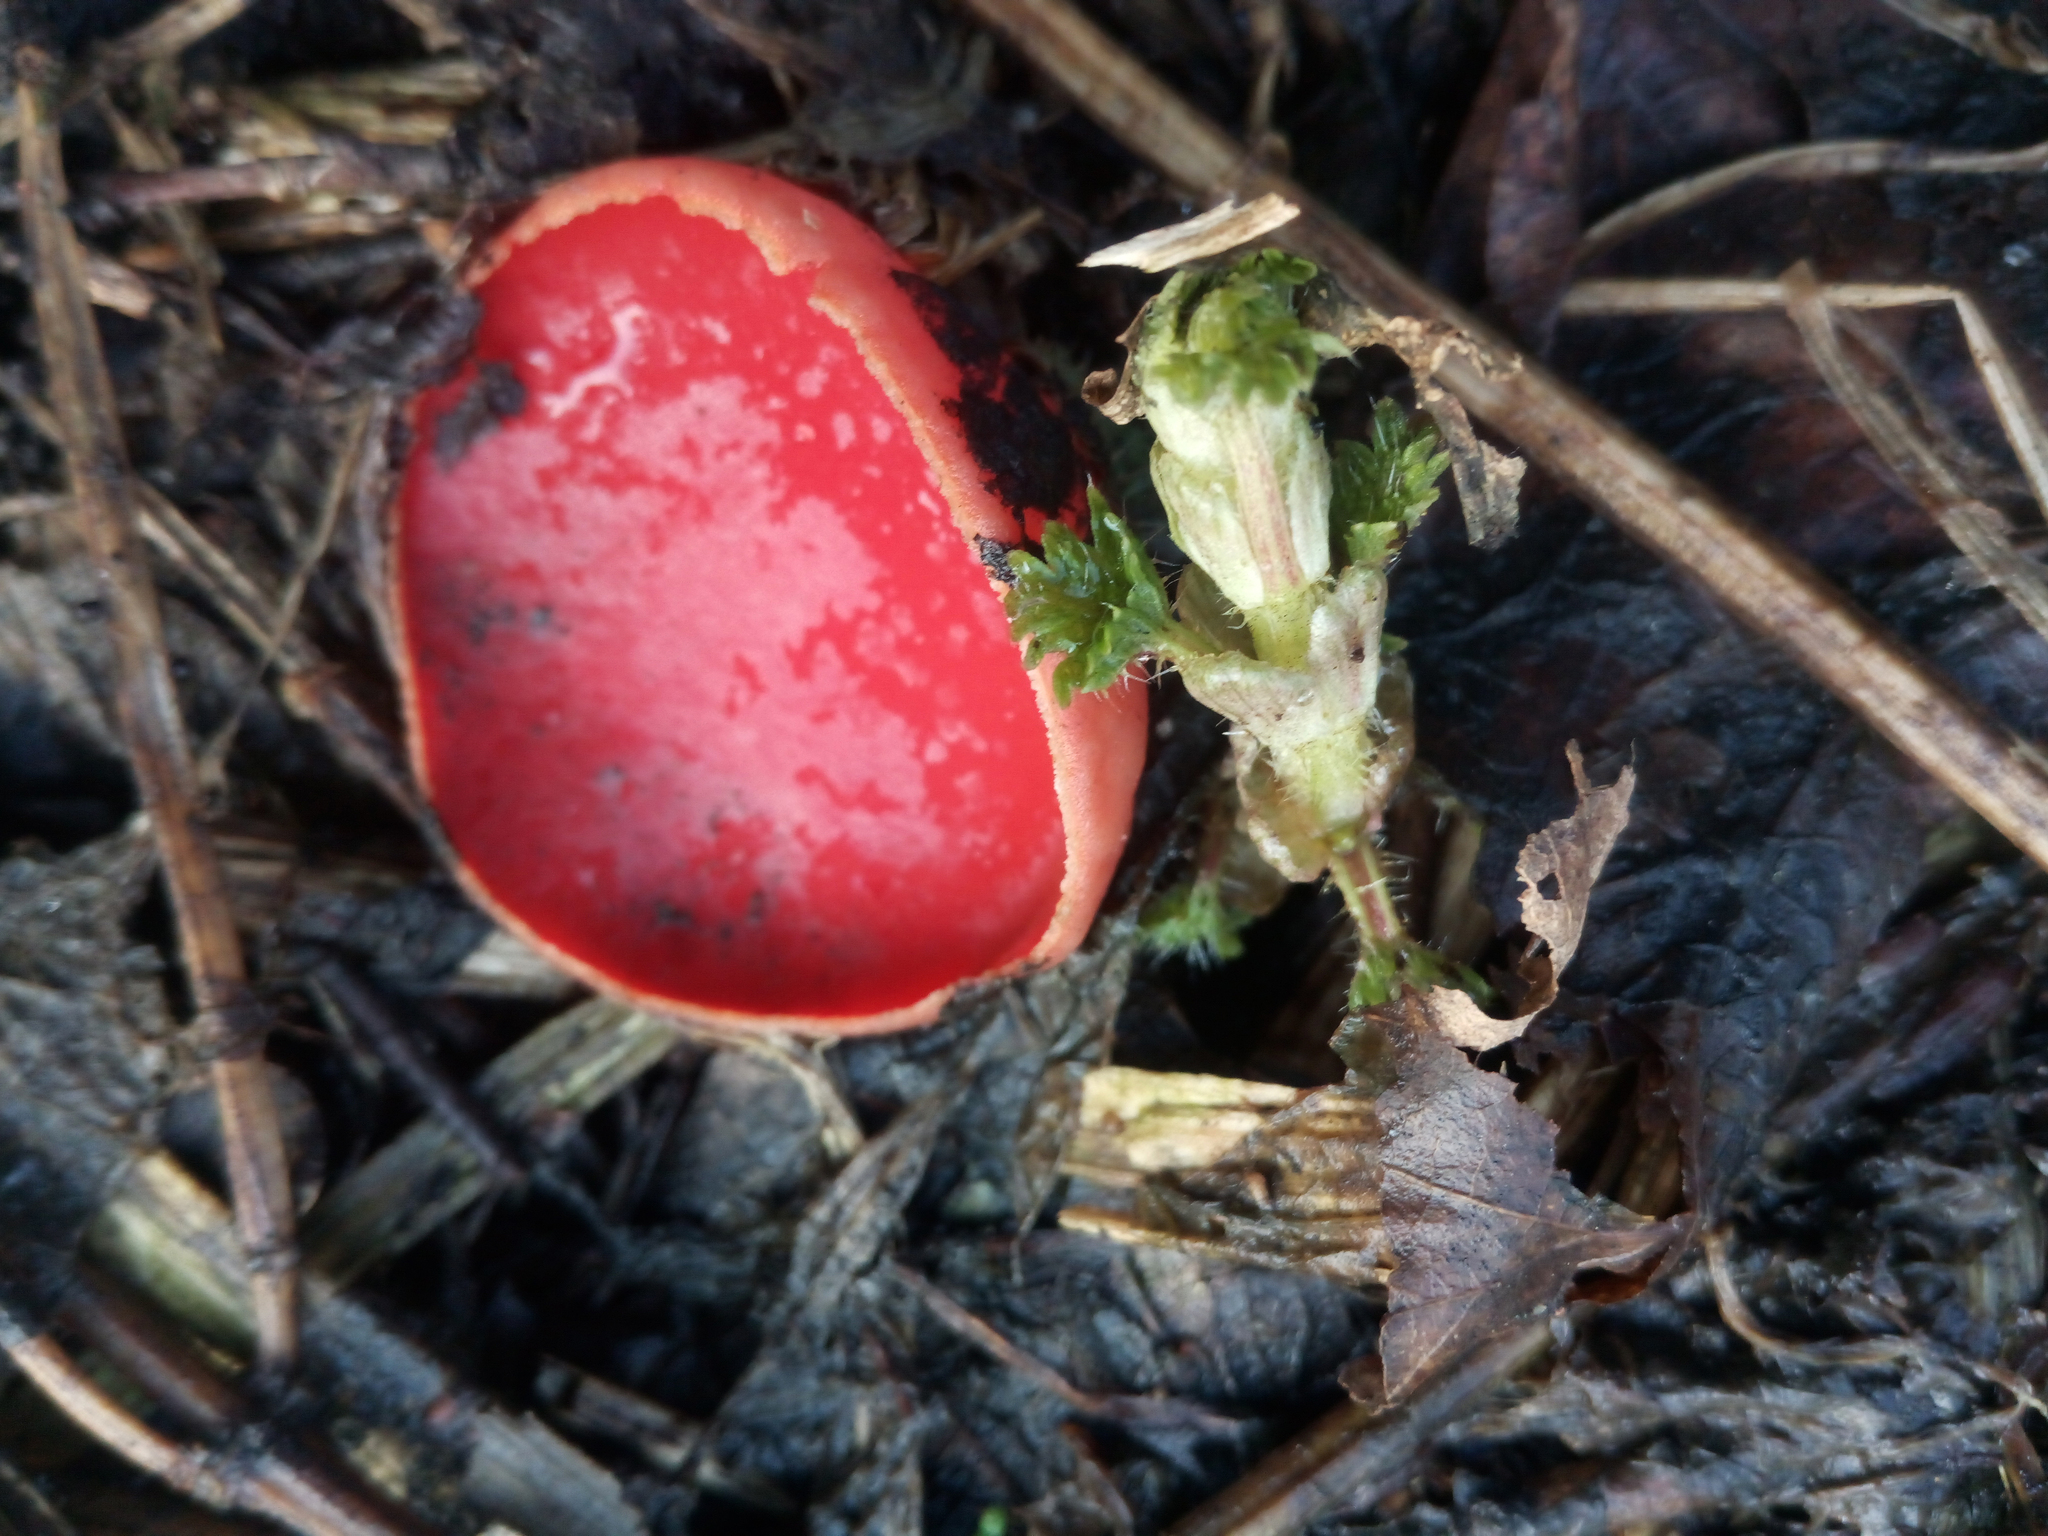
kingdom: Fungi
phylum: Ascomycota
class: Pezizomycetes
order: Pezizales
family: Sarcoscyphaceae
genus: Sarcoscypha
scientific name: Sarcoscypha
